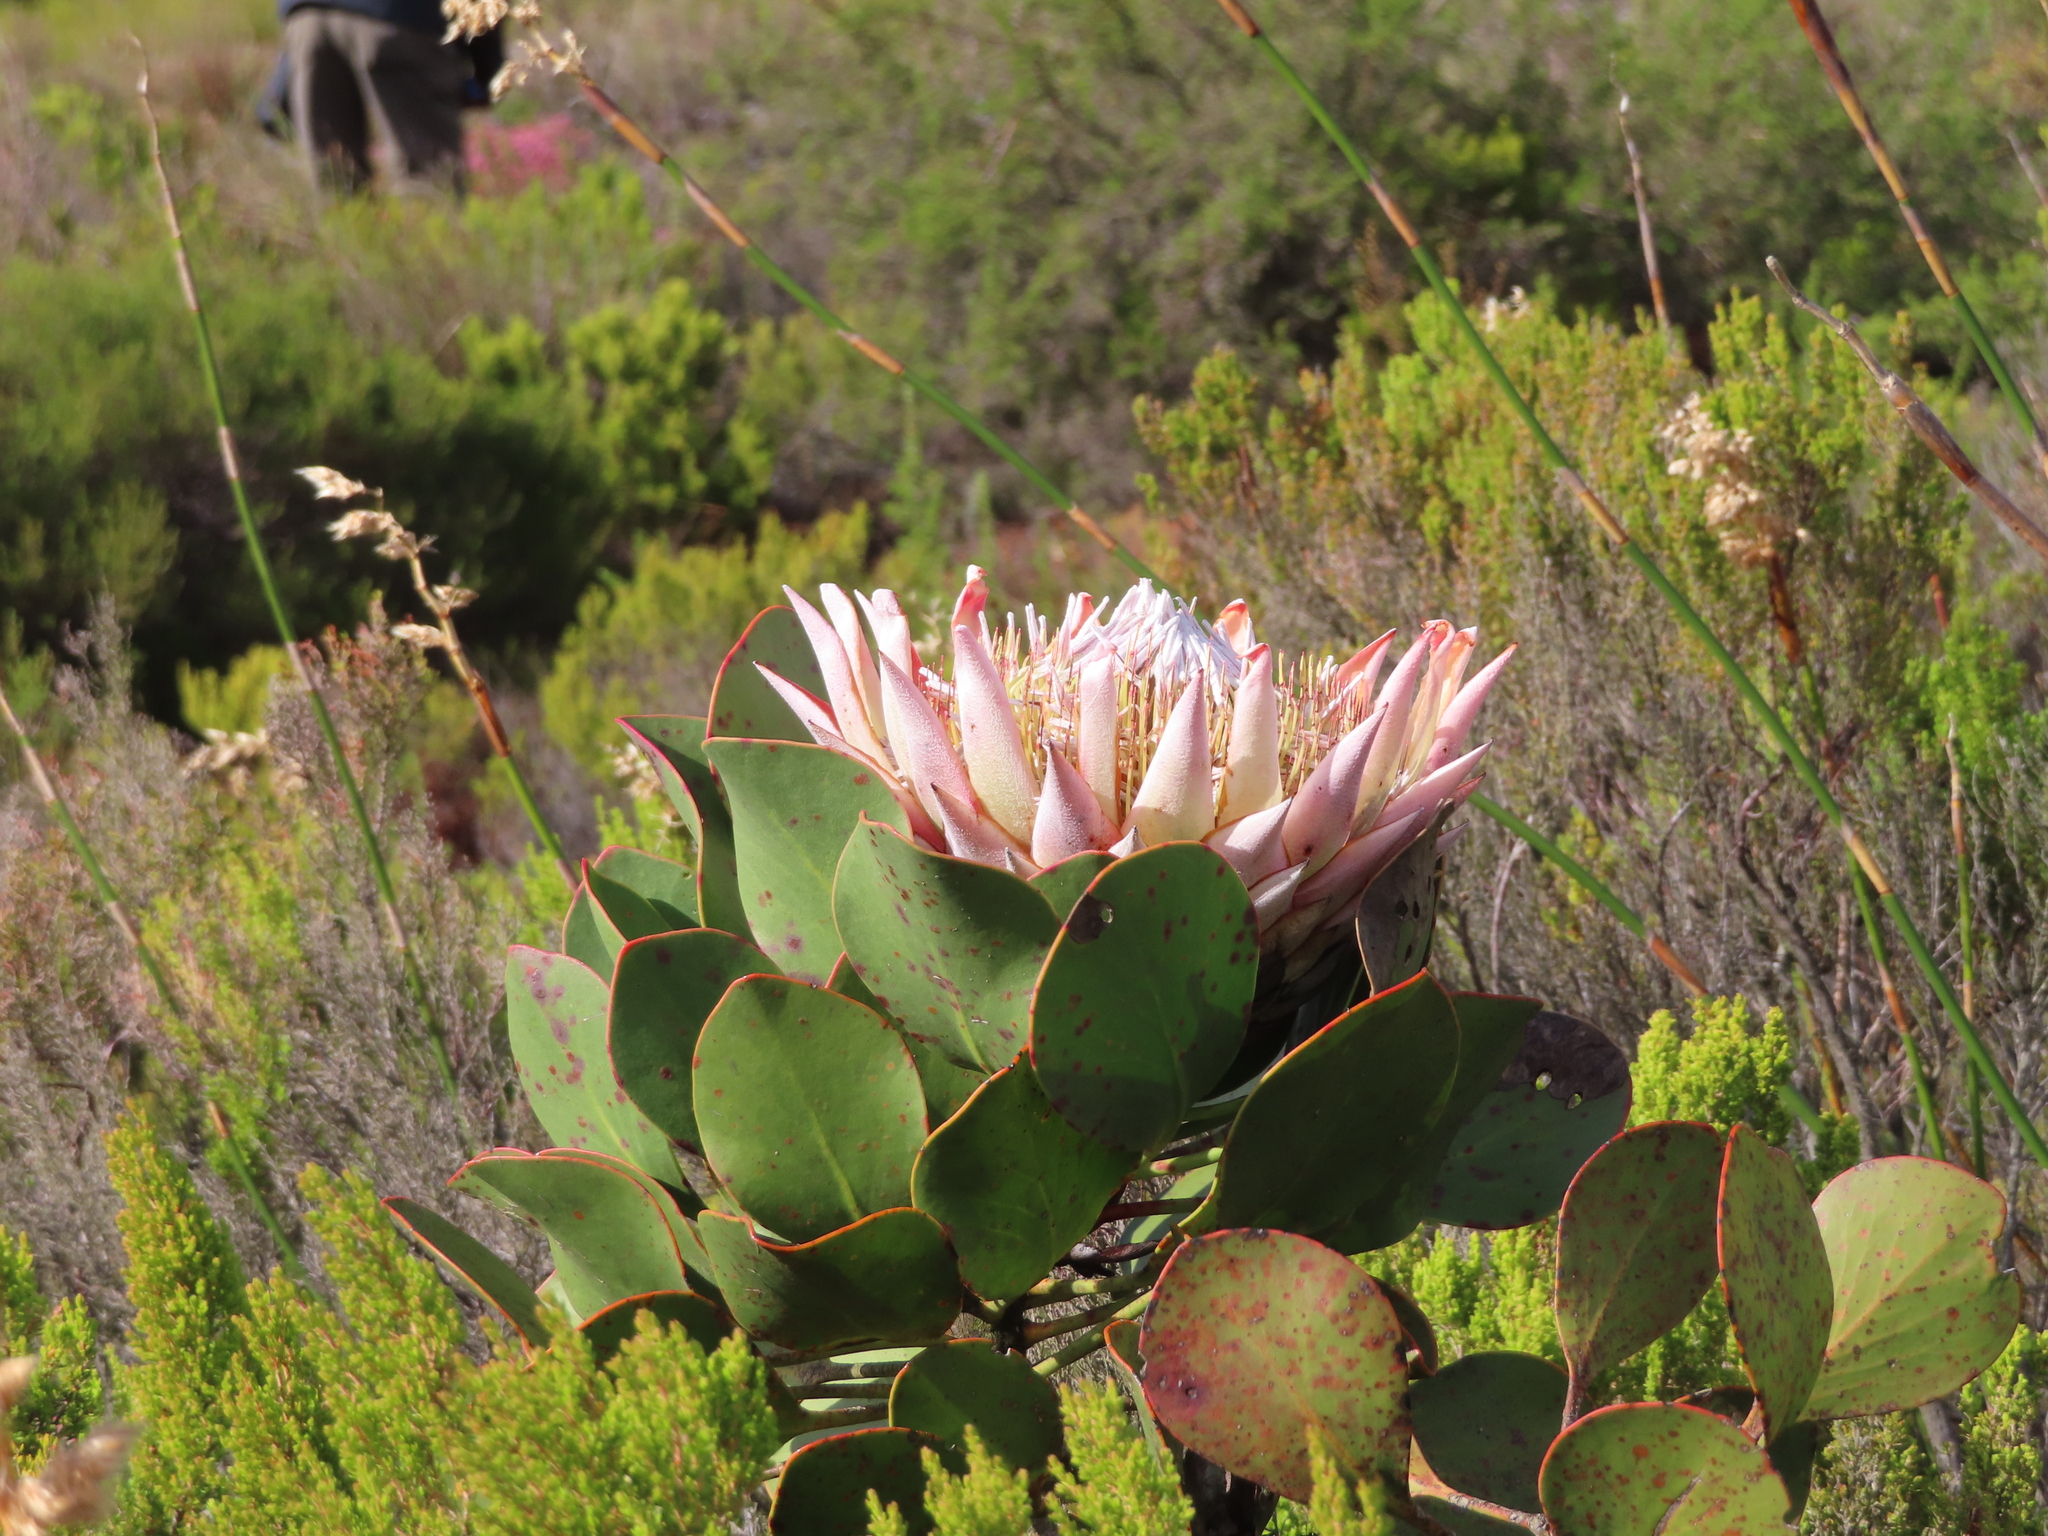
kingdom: Plantae
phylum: Tracheophyta
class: Magnoliopsida
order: Proteales
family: Proteaceae
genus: Protea
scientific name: Protea cynaroides
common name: King protea
